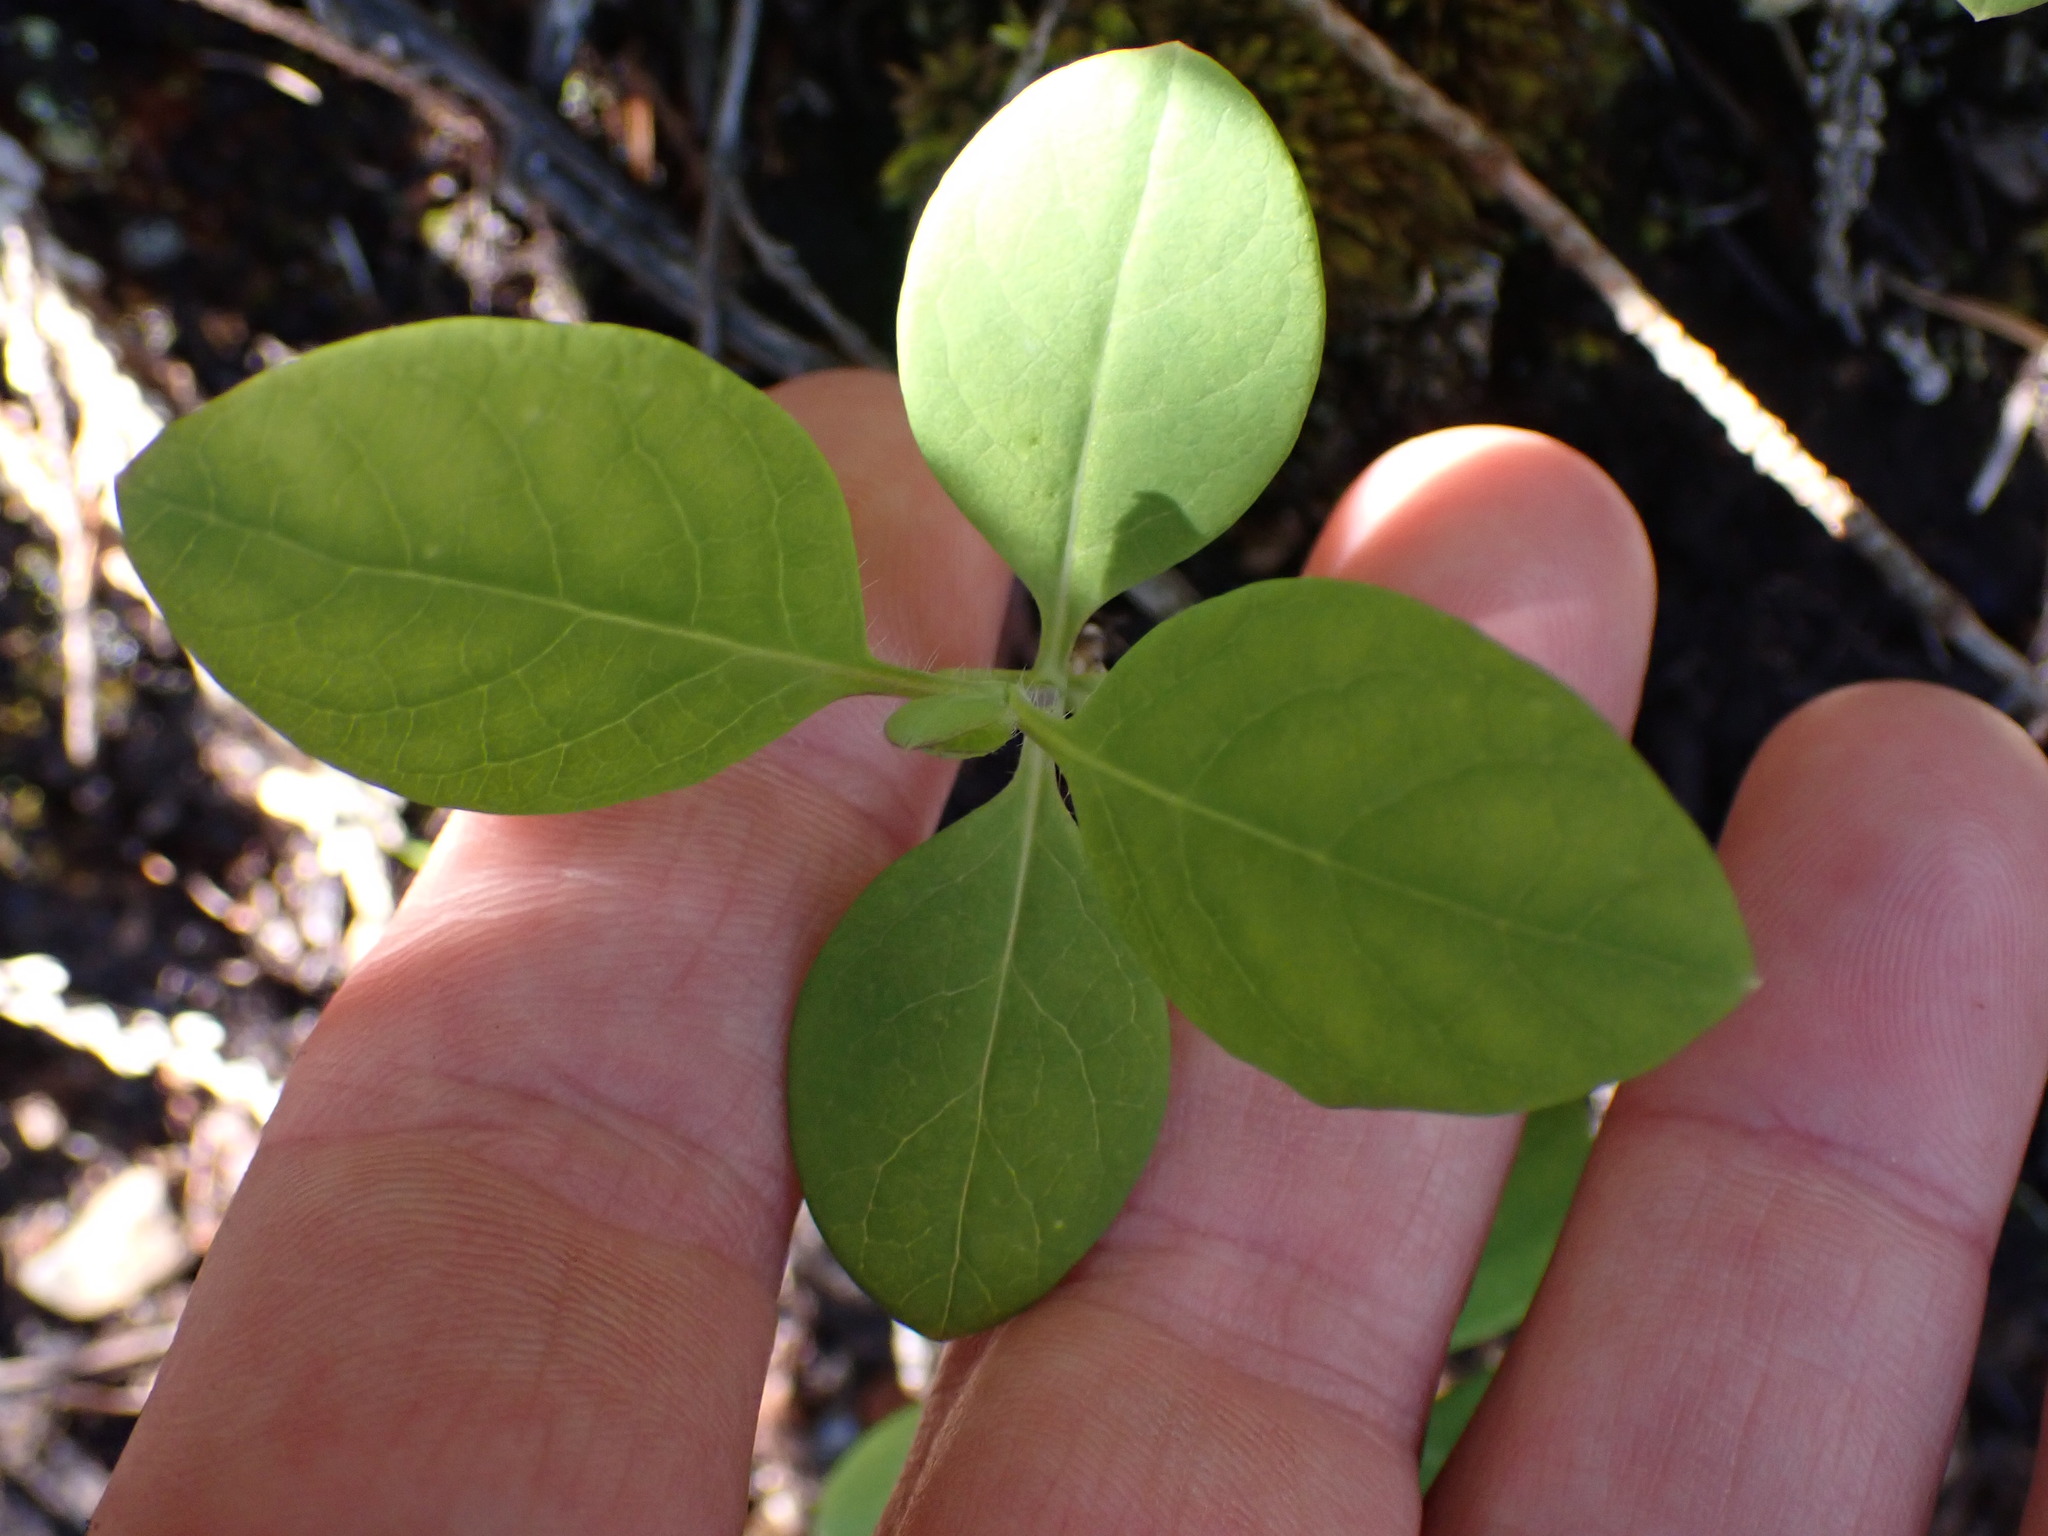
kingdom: Plantae
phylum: Tracheophyta
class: Magnoliopsida
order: Dipsacales
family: Caprifoliaceae
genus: Lonicera
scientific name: Lonicera ciliosa
